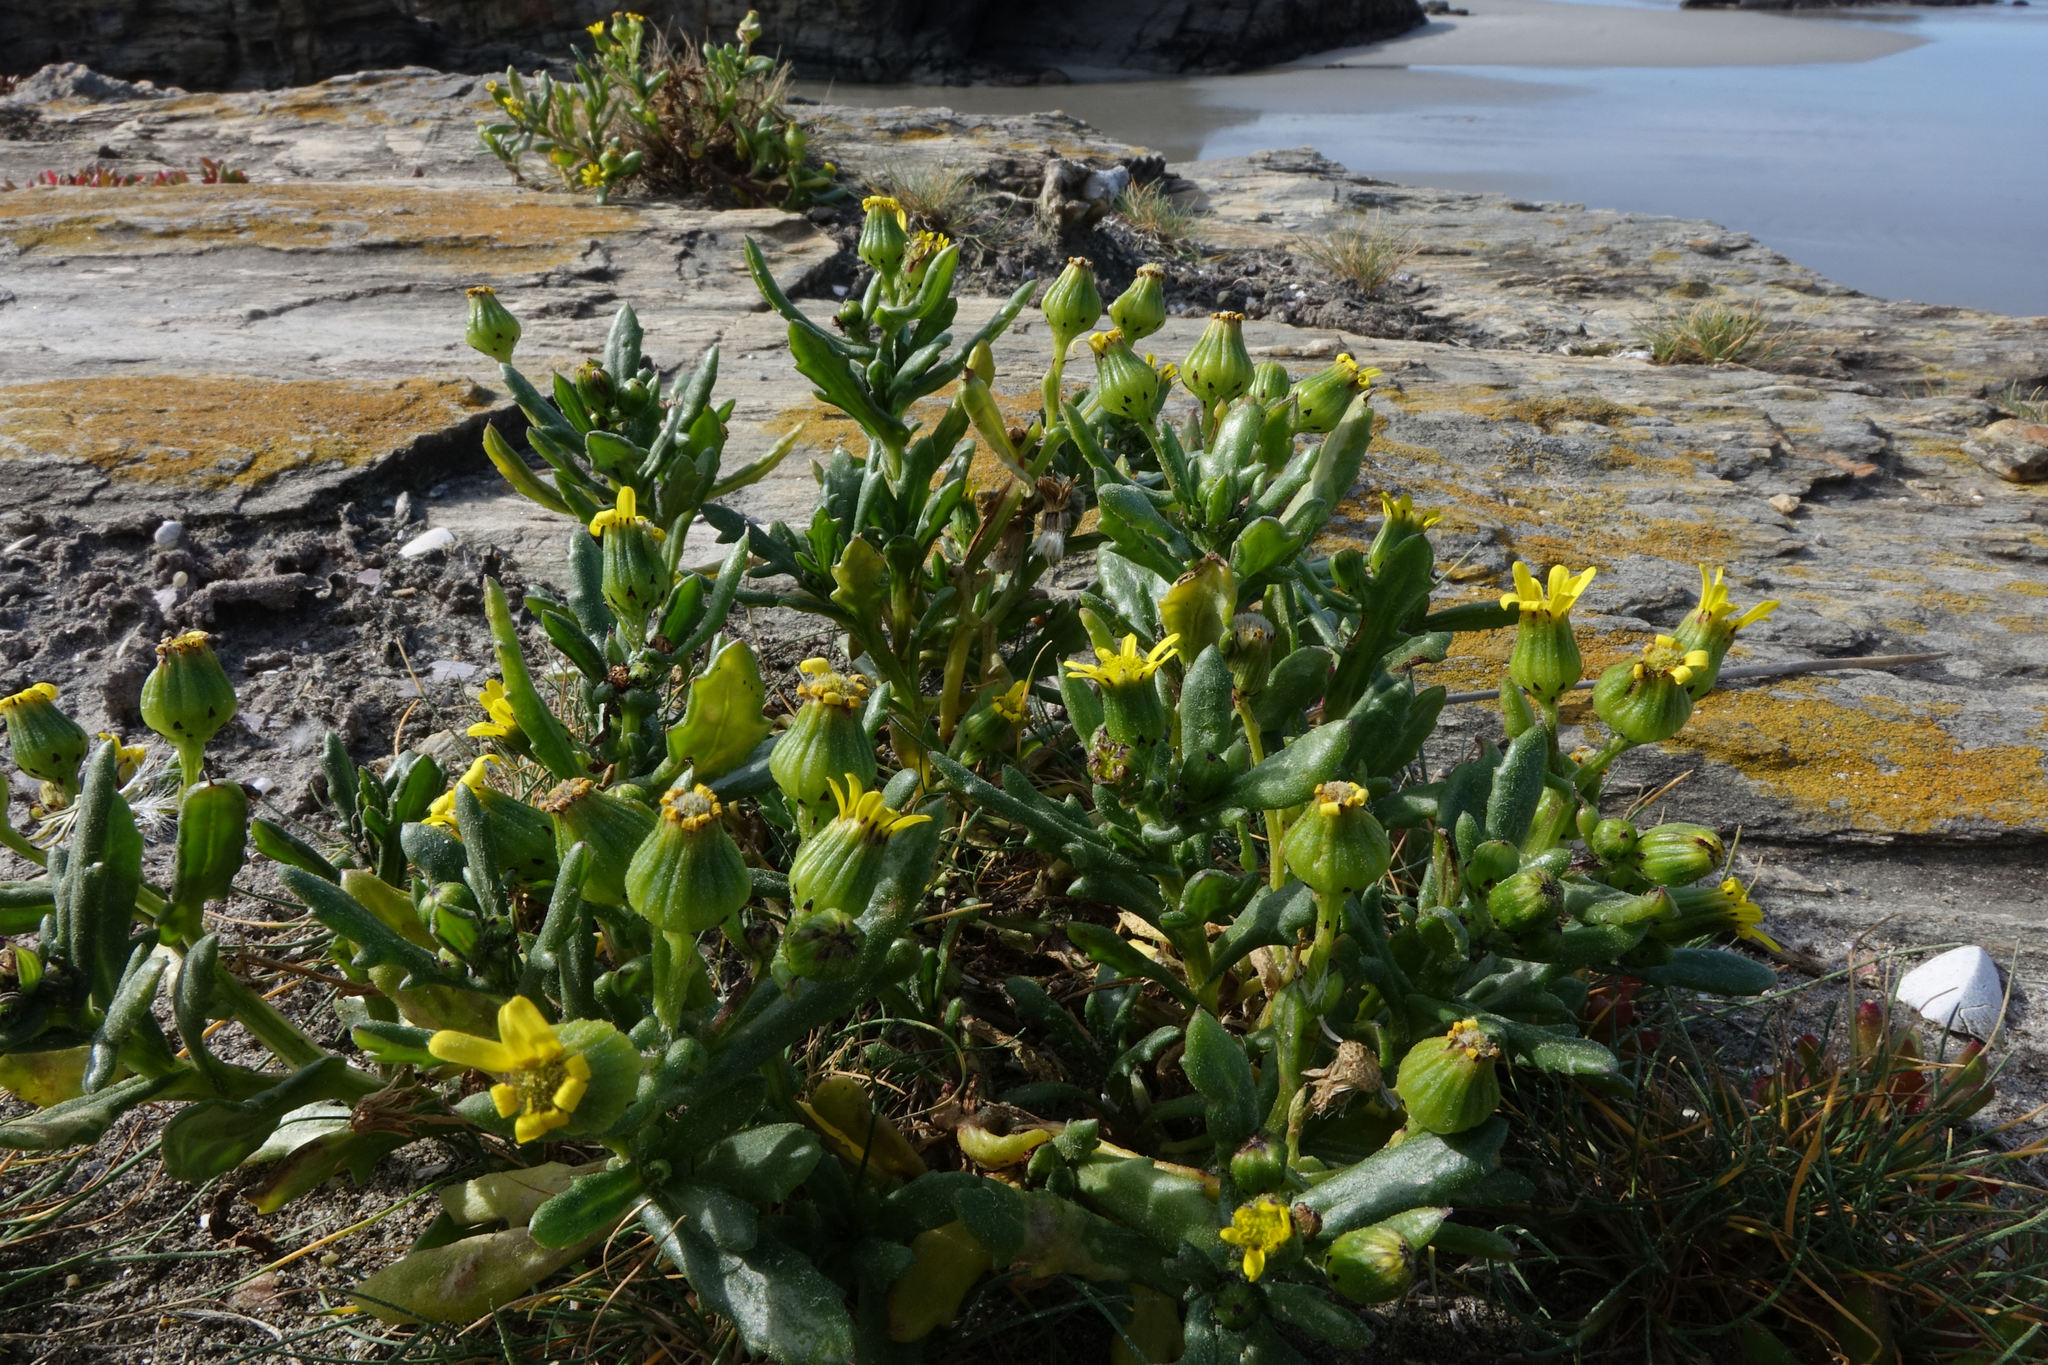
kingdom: Plantae
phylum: Tracheophyta
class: Magnoliopsida
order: Asterales
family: Asteraceae
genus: Senecio
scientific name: Senecio carnosulus
